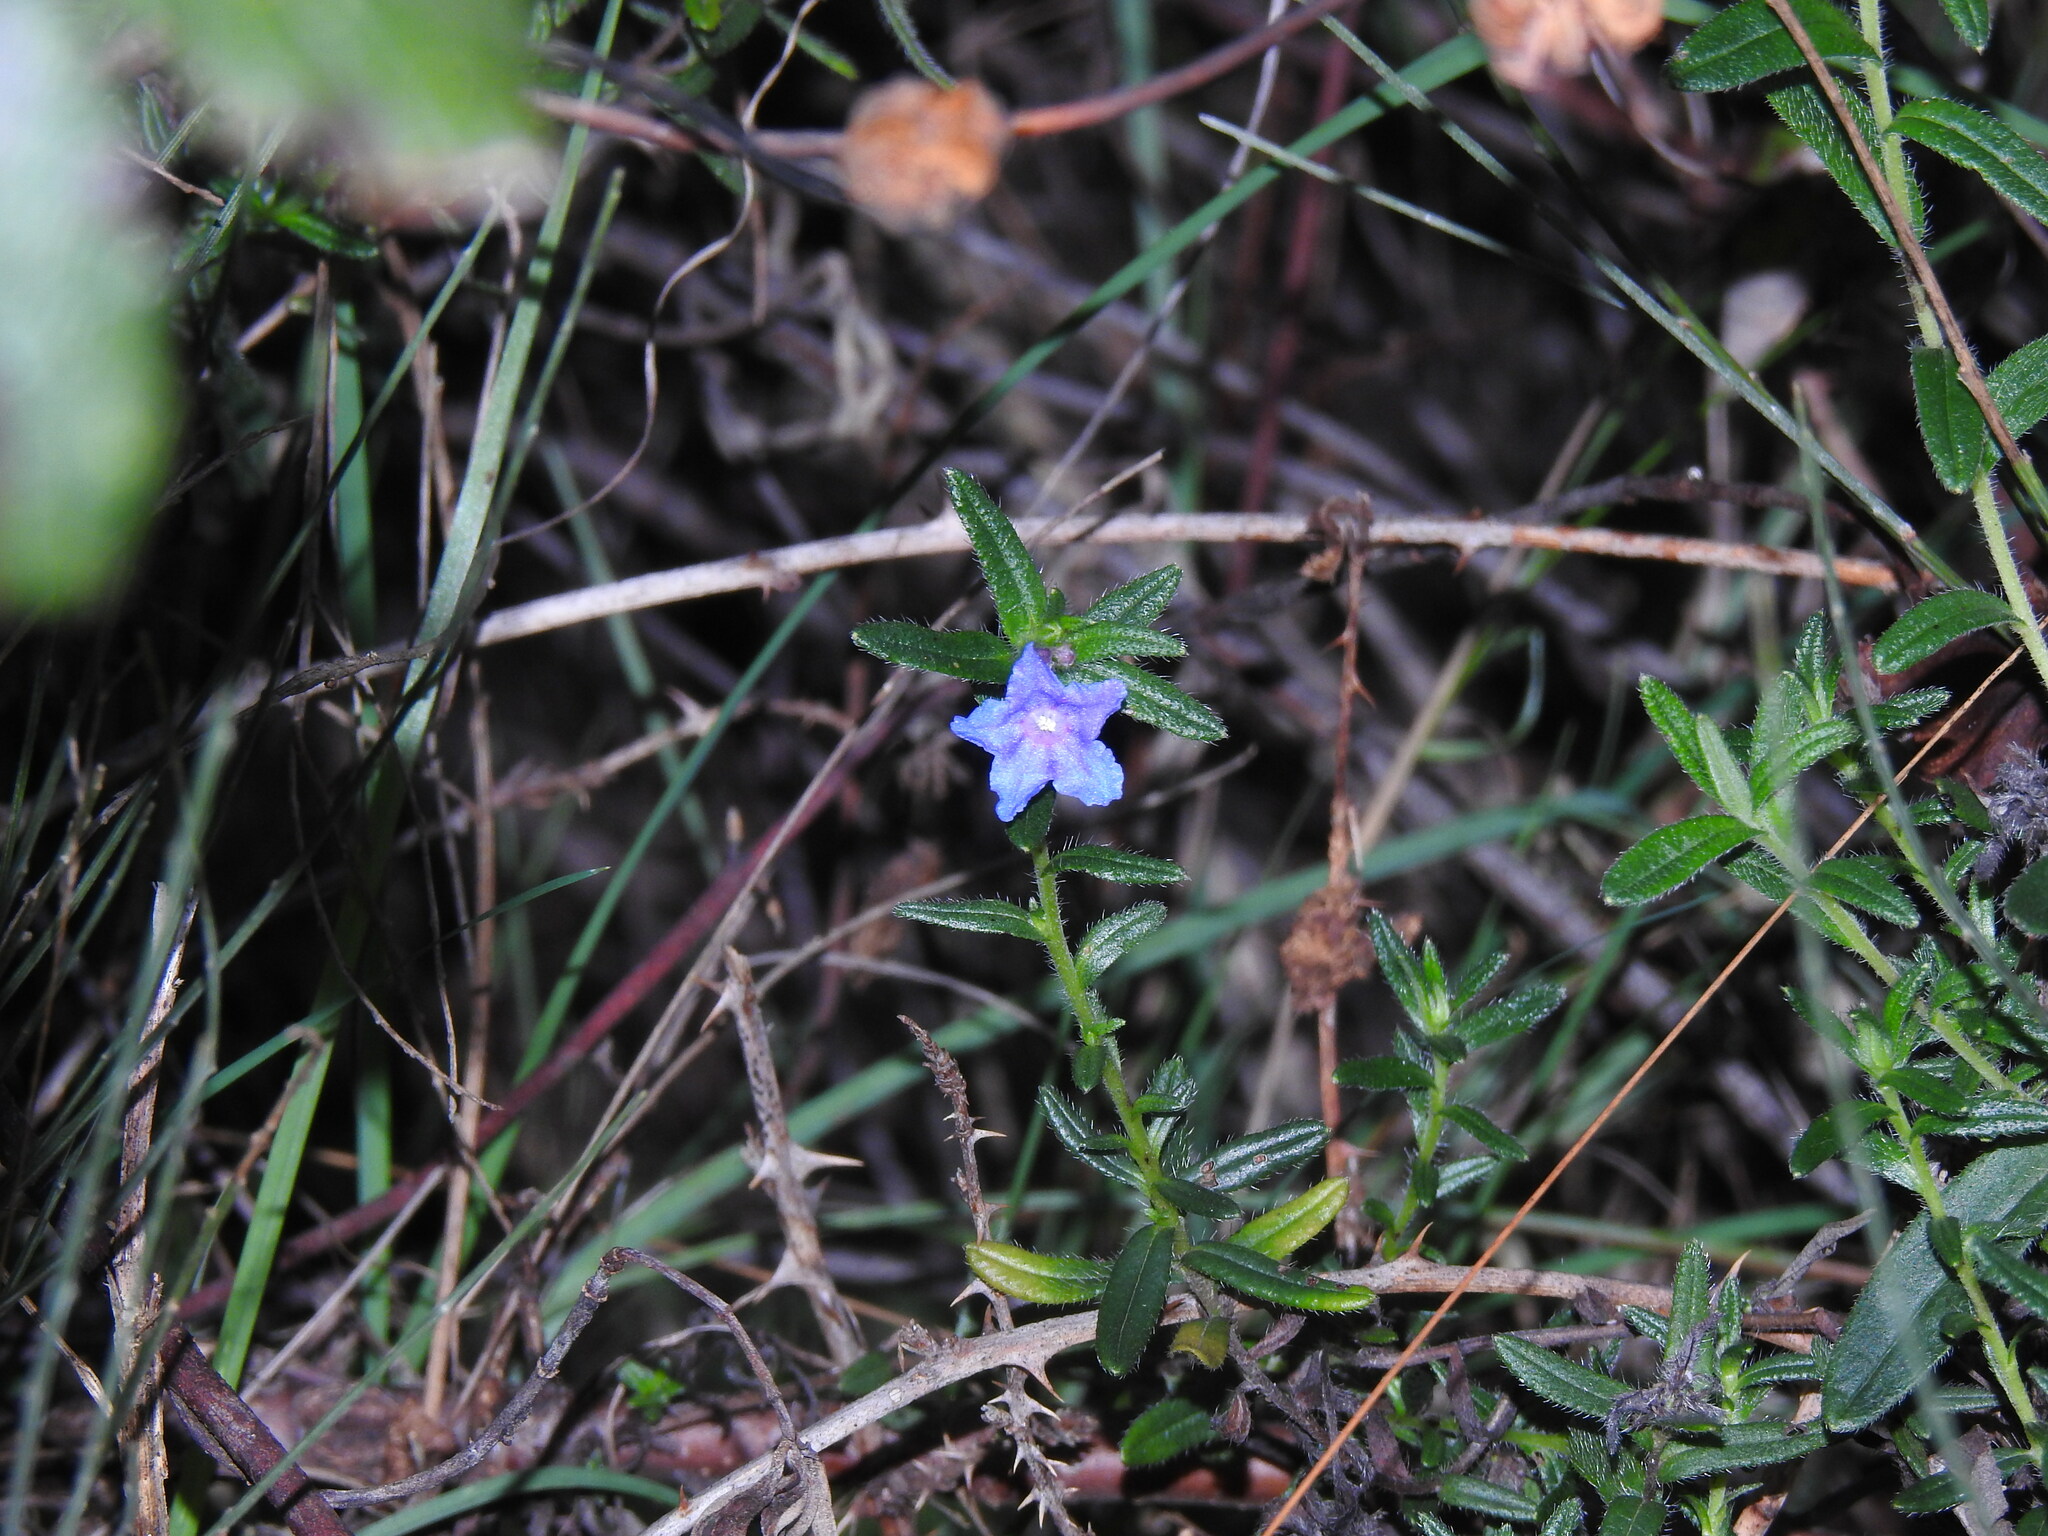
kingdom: Plantae
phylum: Tracheophyta
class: Magnoliopsida
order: Boraginales
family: Boraginaceae
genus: Glandora
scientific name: Glandora prostrata
